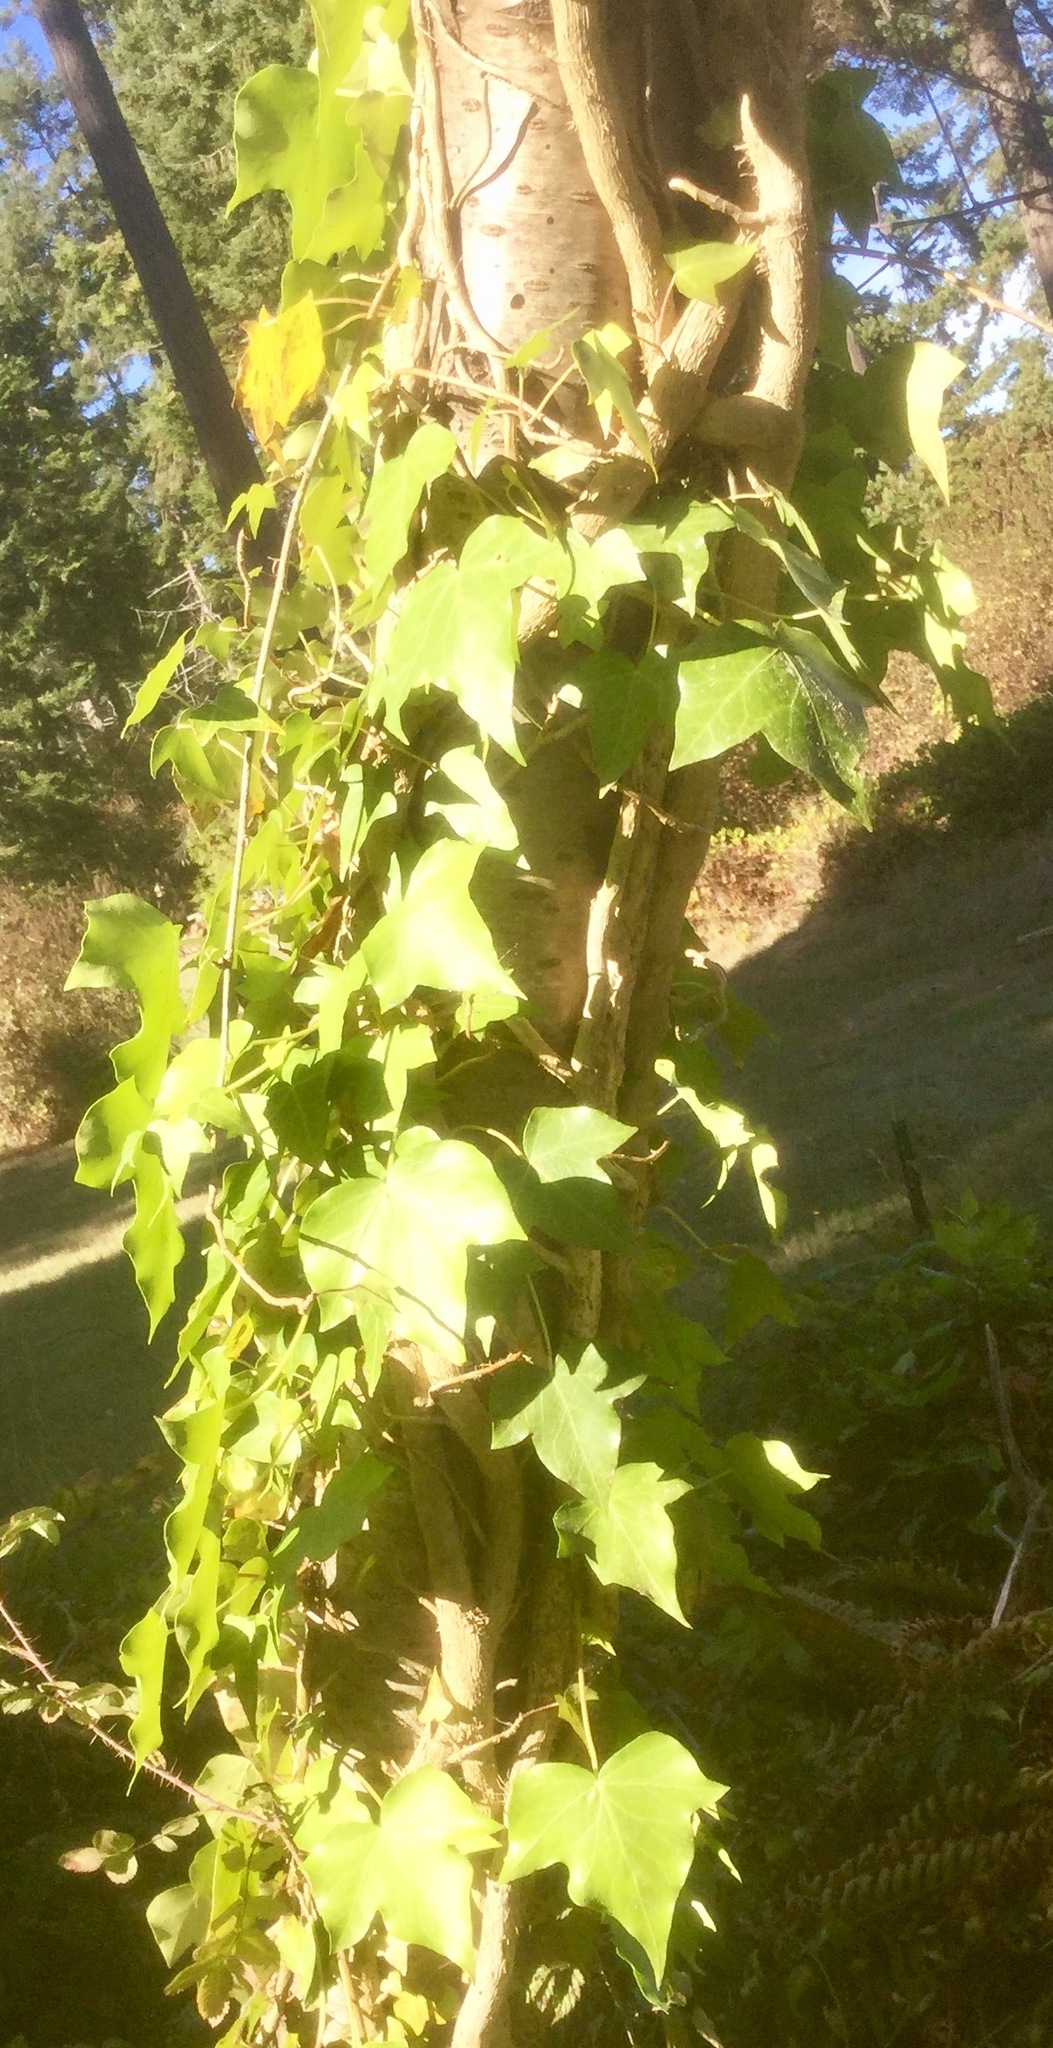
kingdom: Plantae
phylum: Tracheophyta
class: Magnoliopsida
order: Apiales
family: Araliaceae
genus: Hedera
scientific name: Hedera helix
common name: Ivy
